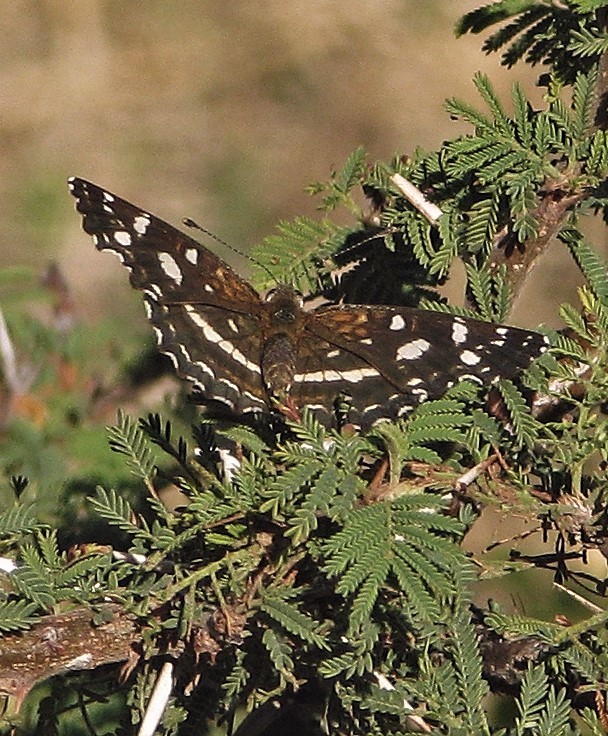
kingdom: Animalia
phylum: Arthropoda
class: Insecta
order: Lepidoptera
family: Nymphalidae
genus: Ortilia
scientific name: Ortilia ithra
